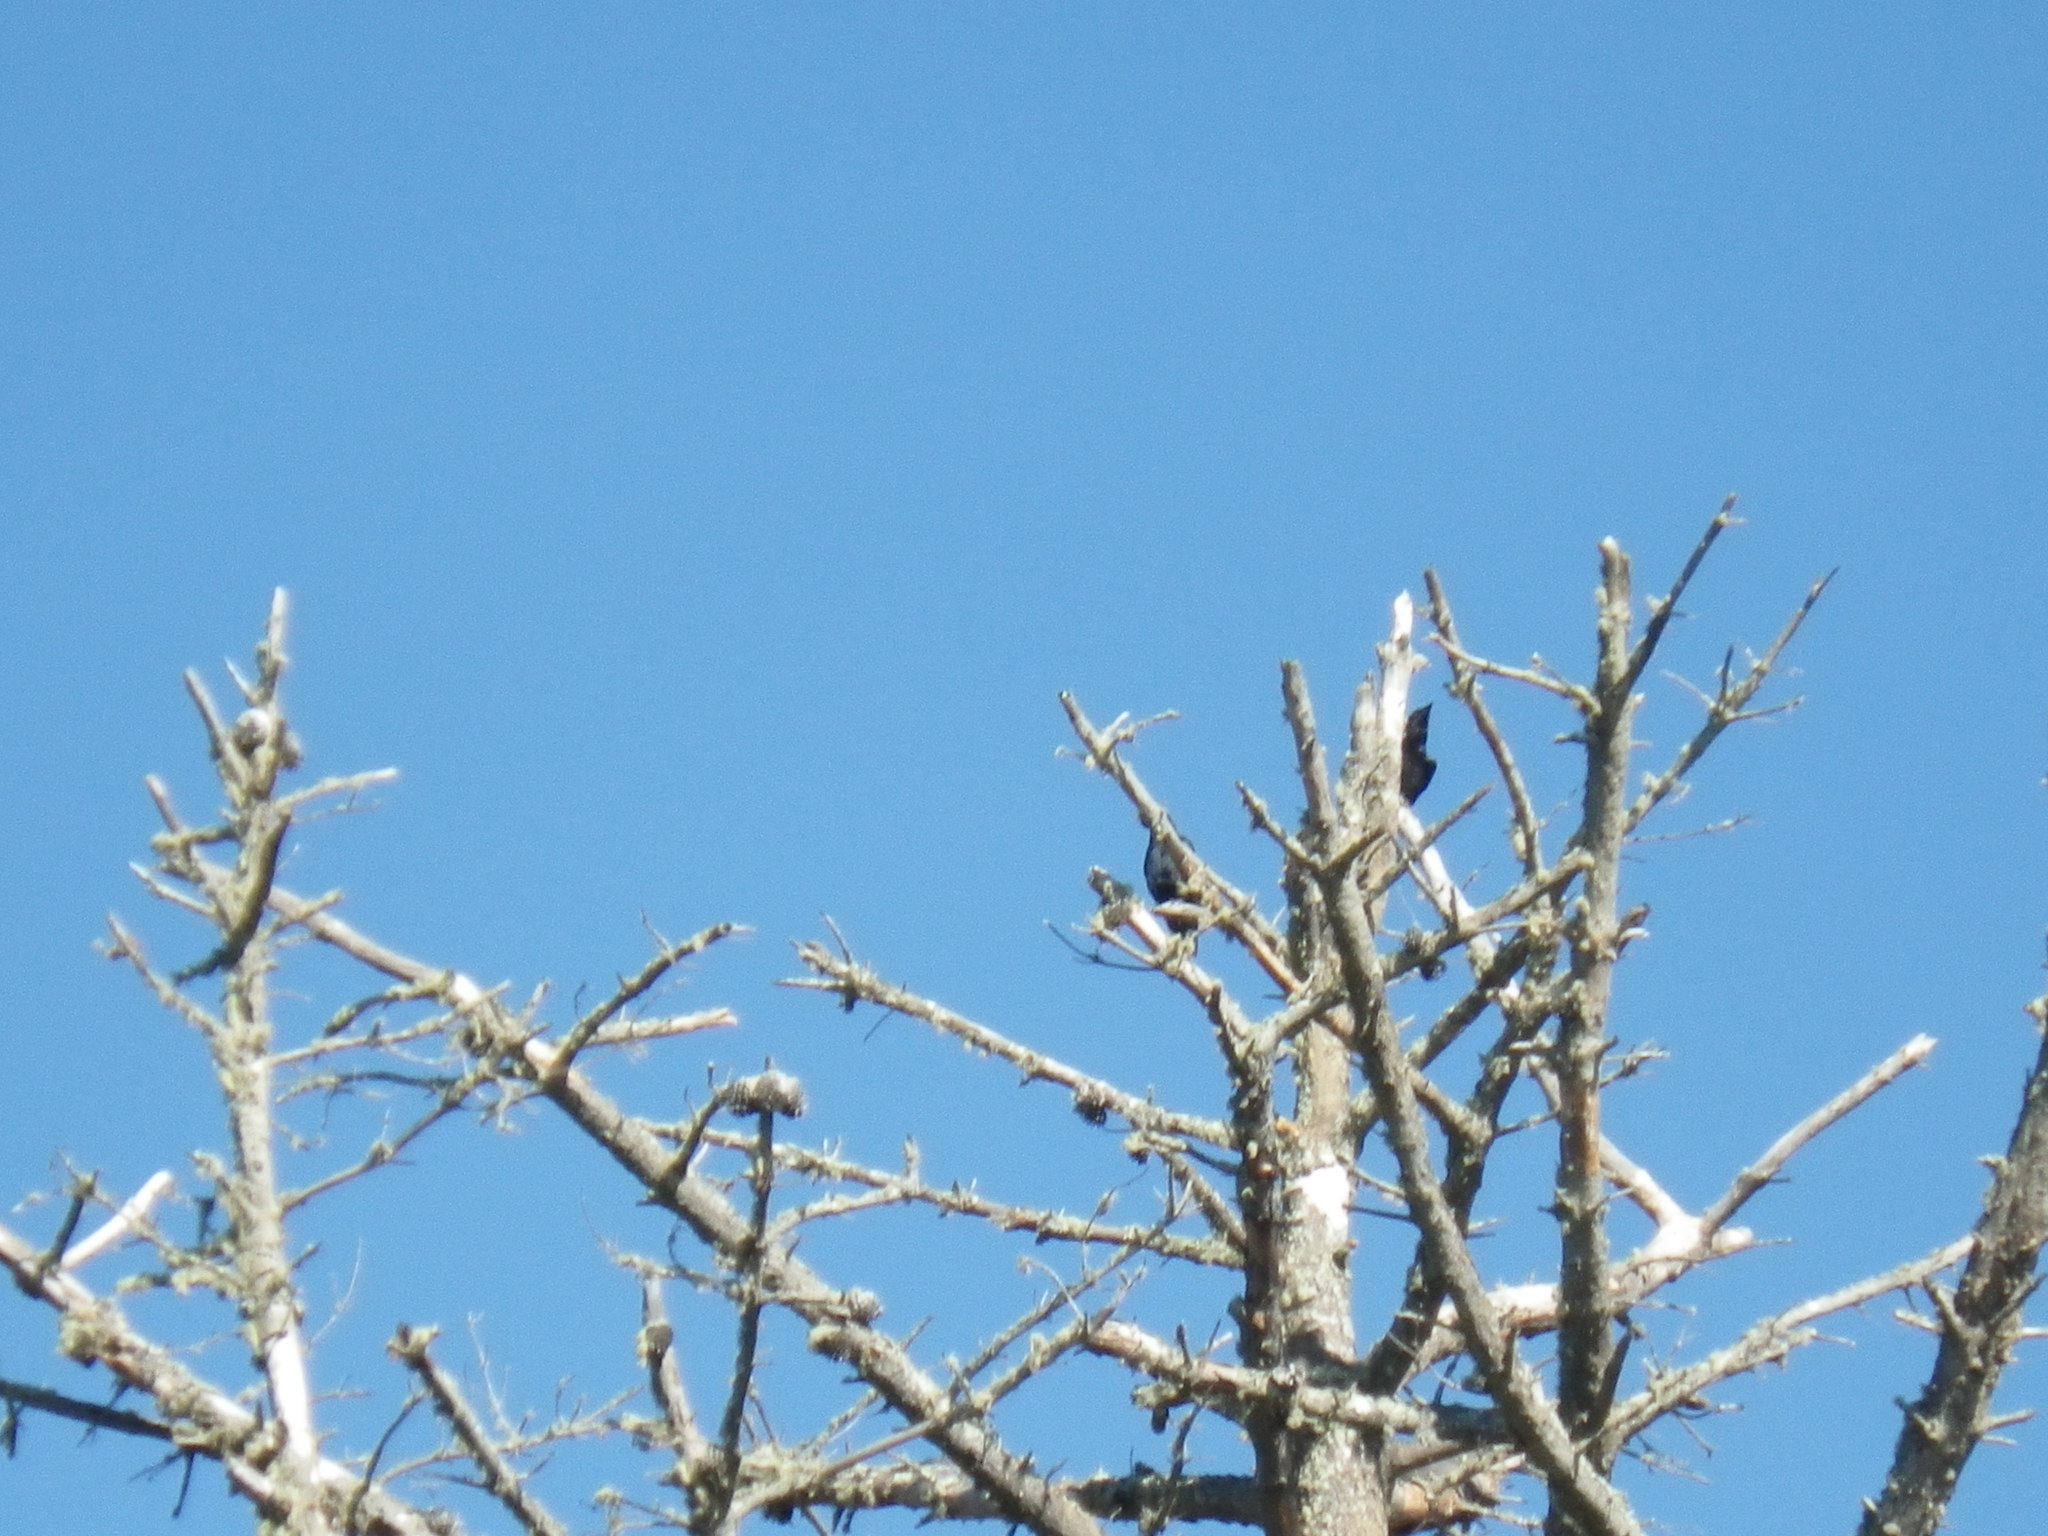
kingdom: Animalia
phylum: Chordata
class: Aves
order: Passeriformes
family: Corvidae
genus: Corvus
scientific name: Corvus brachyrhynchos
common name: American crow
